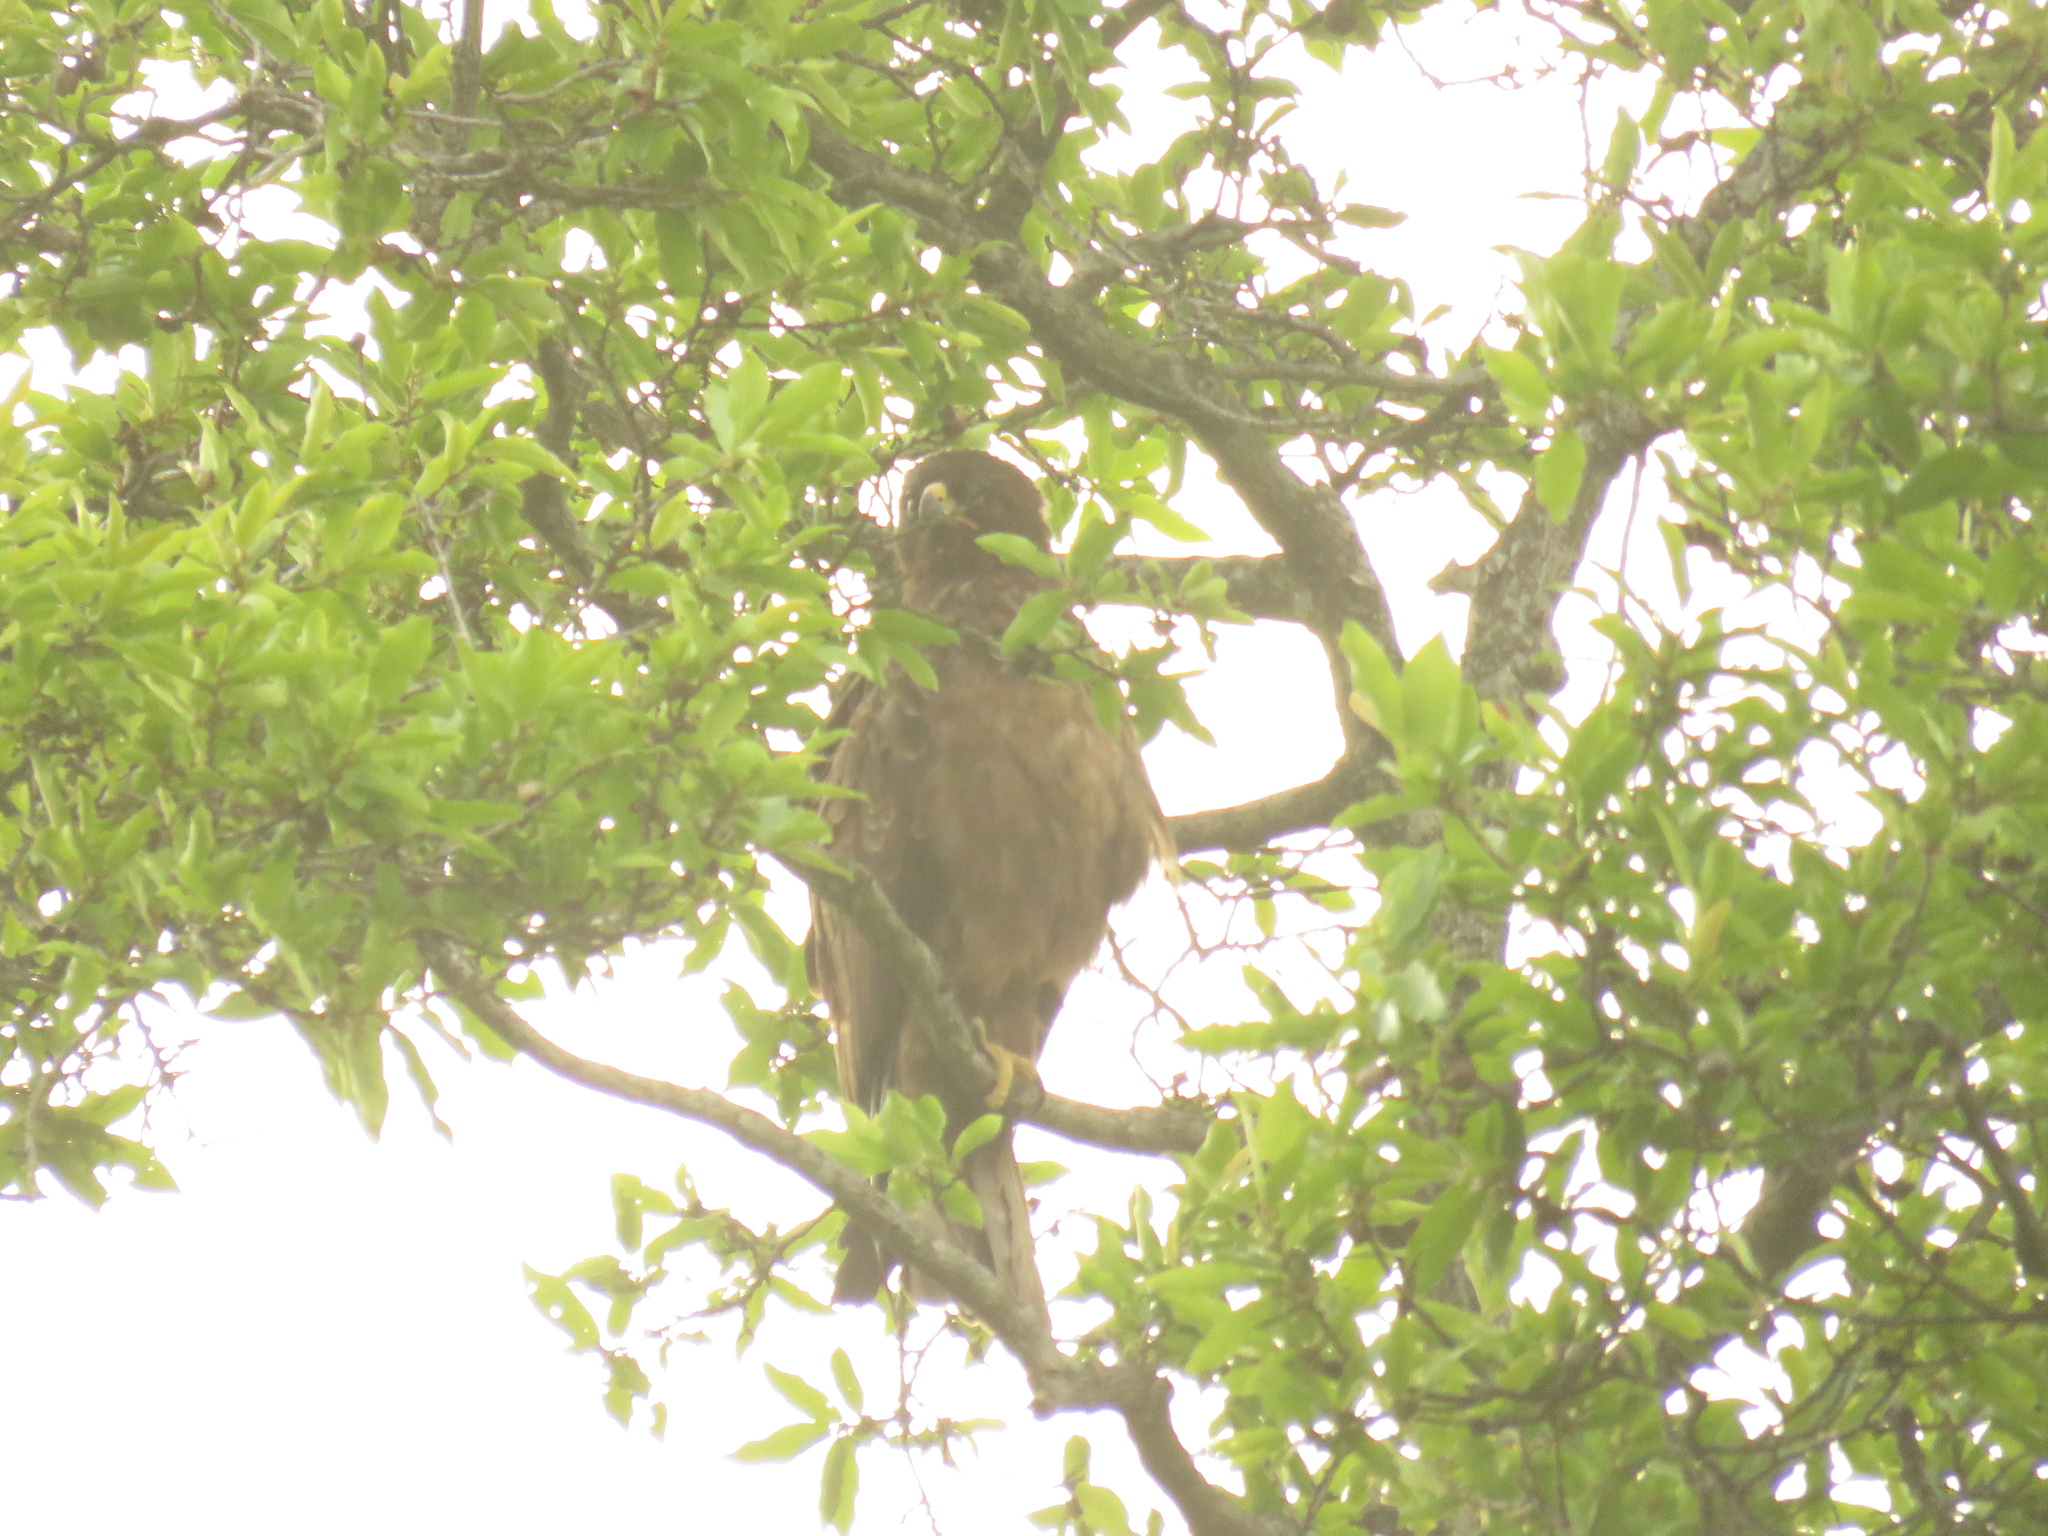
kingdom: Animalia
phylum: Chordata
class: Aves
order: Accipitriformes
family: Accipitridae
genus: Hieraaetus
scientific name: Hieraaetus wahlbergi
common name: Wahlberg's eagle
